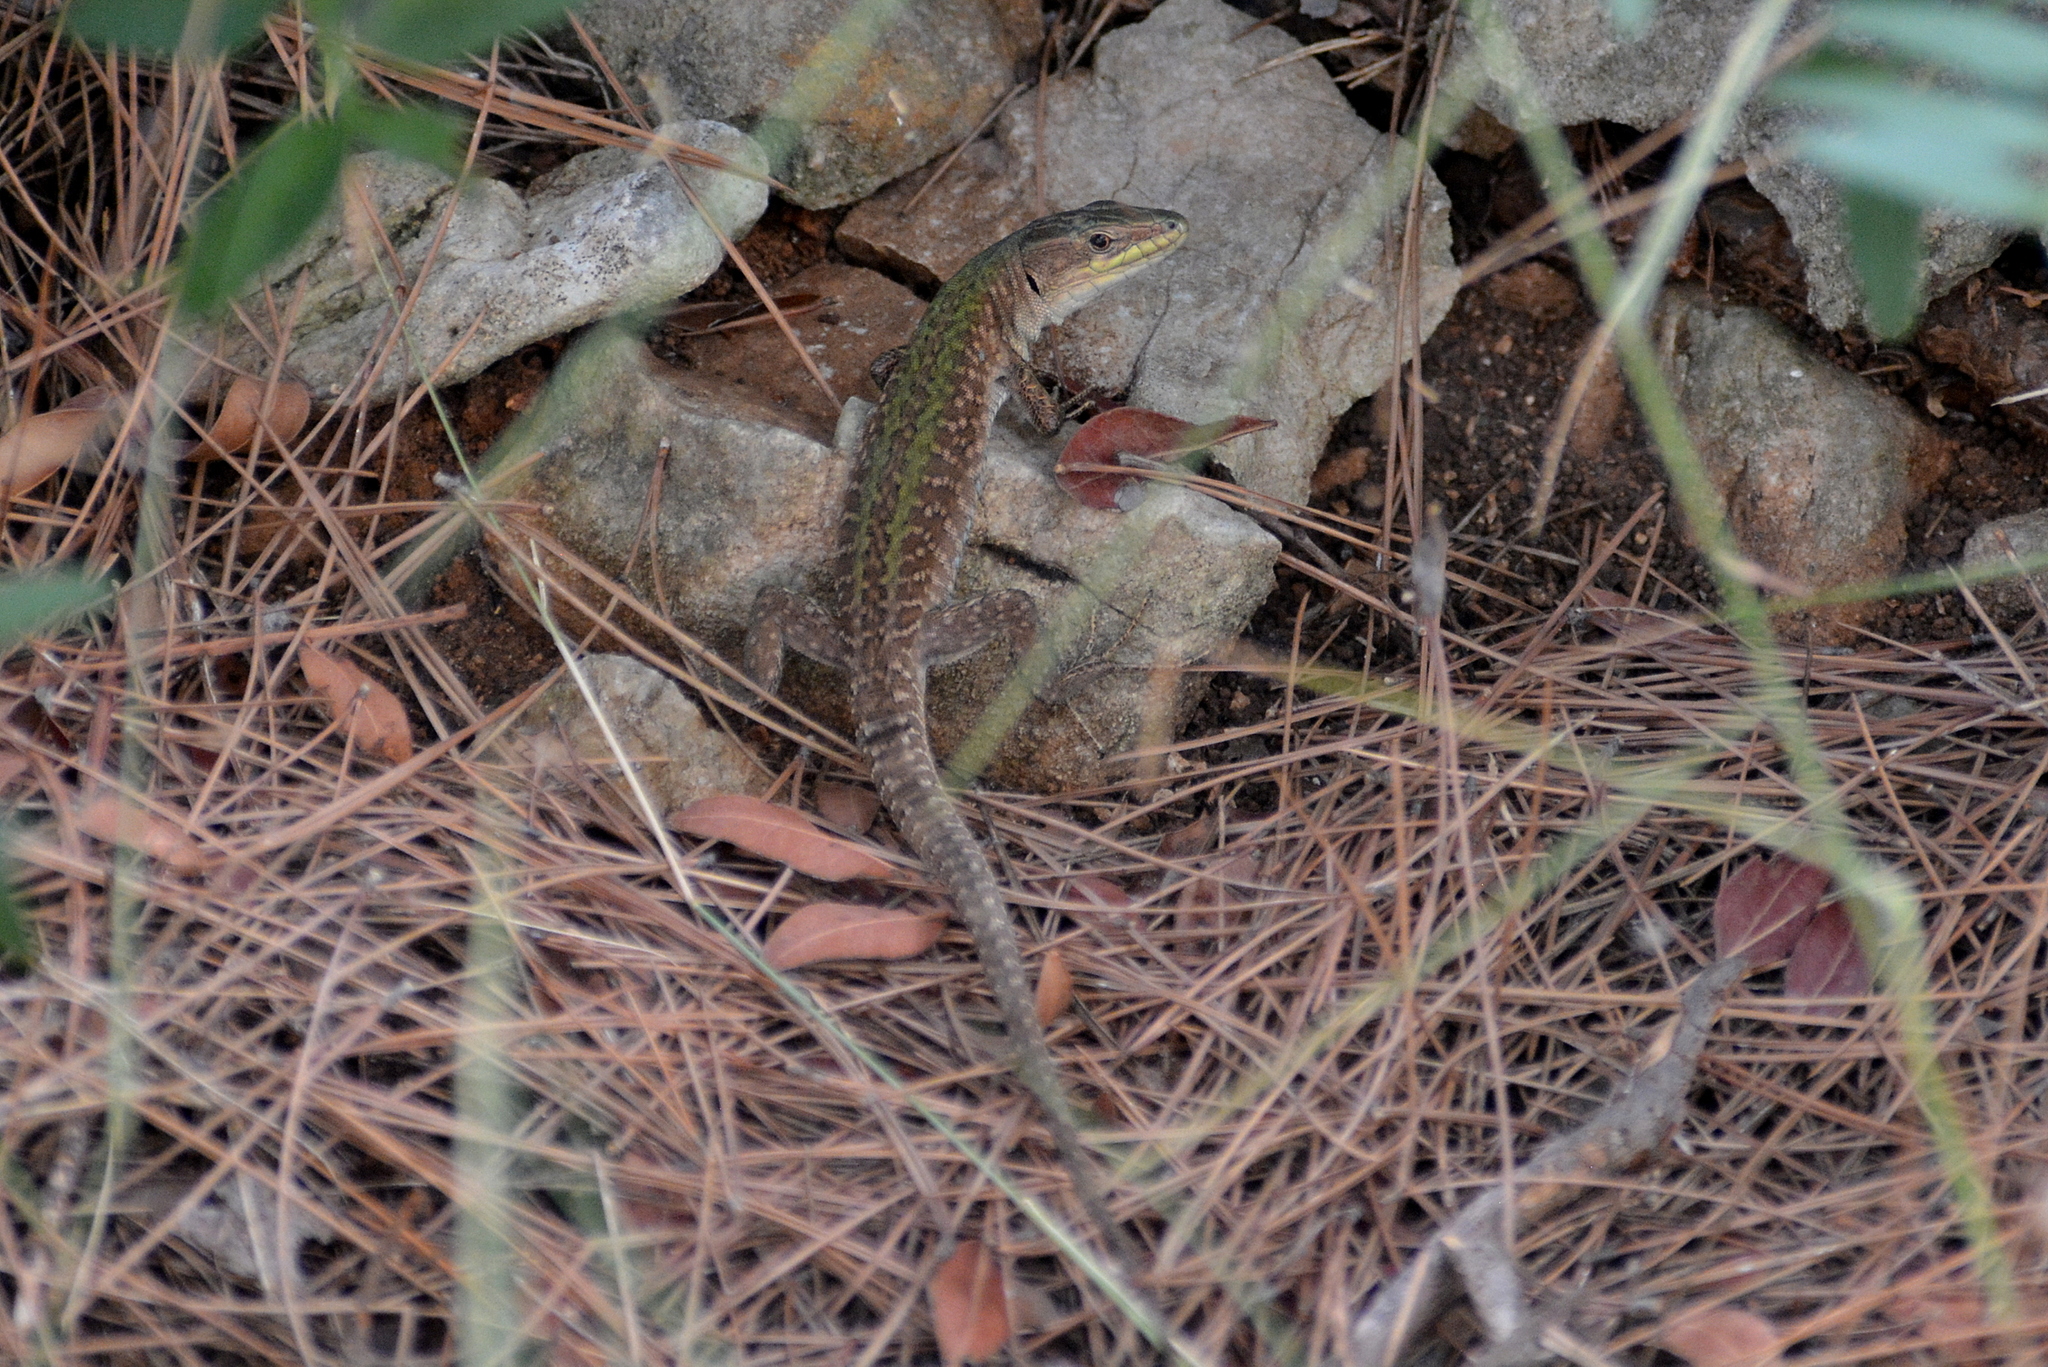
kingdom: Animalia
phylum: Chordata
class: Squamata
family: Lacertidae
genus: Podarcis
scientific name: Podarcis siculus
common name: Italian wall lizard
